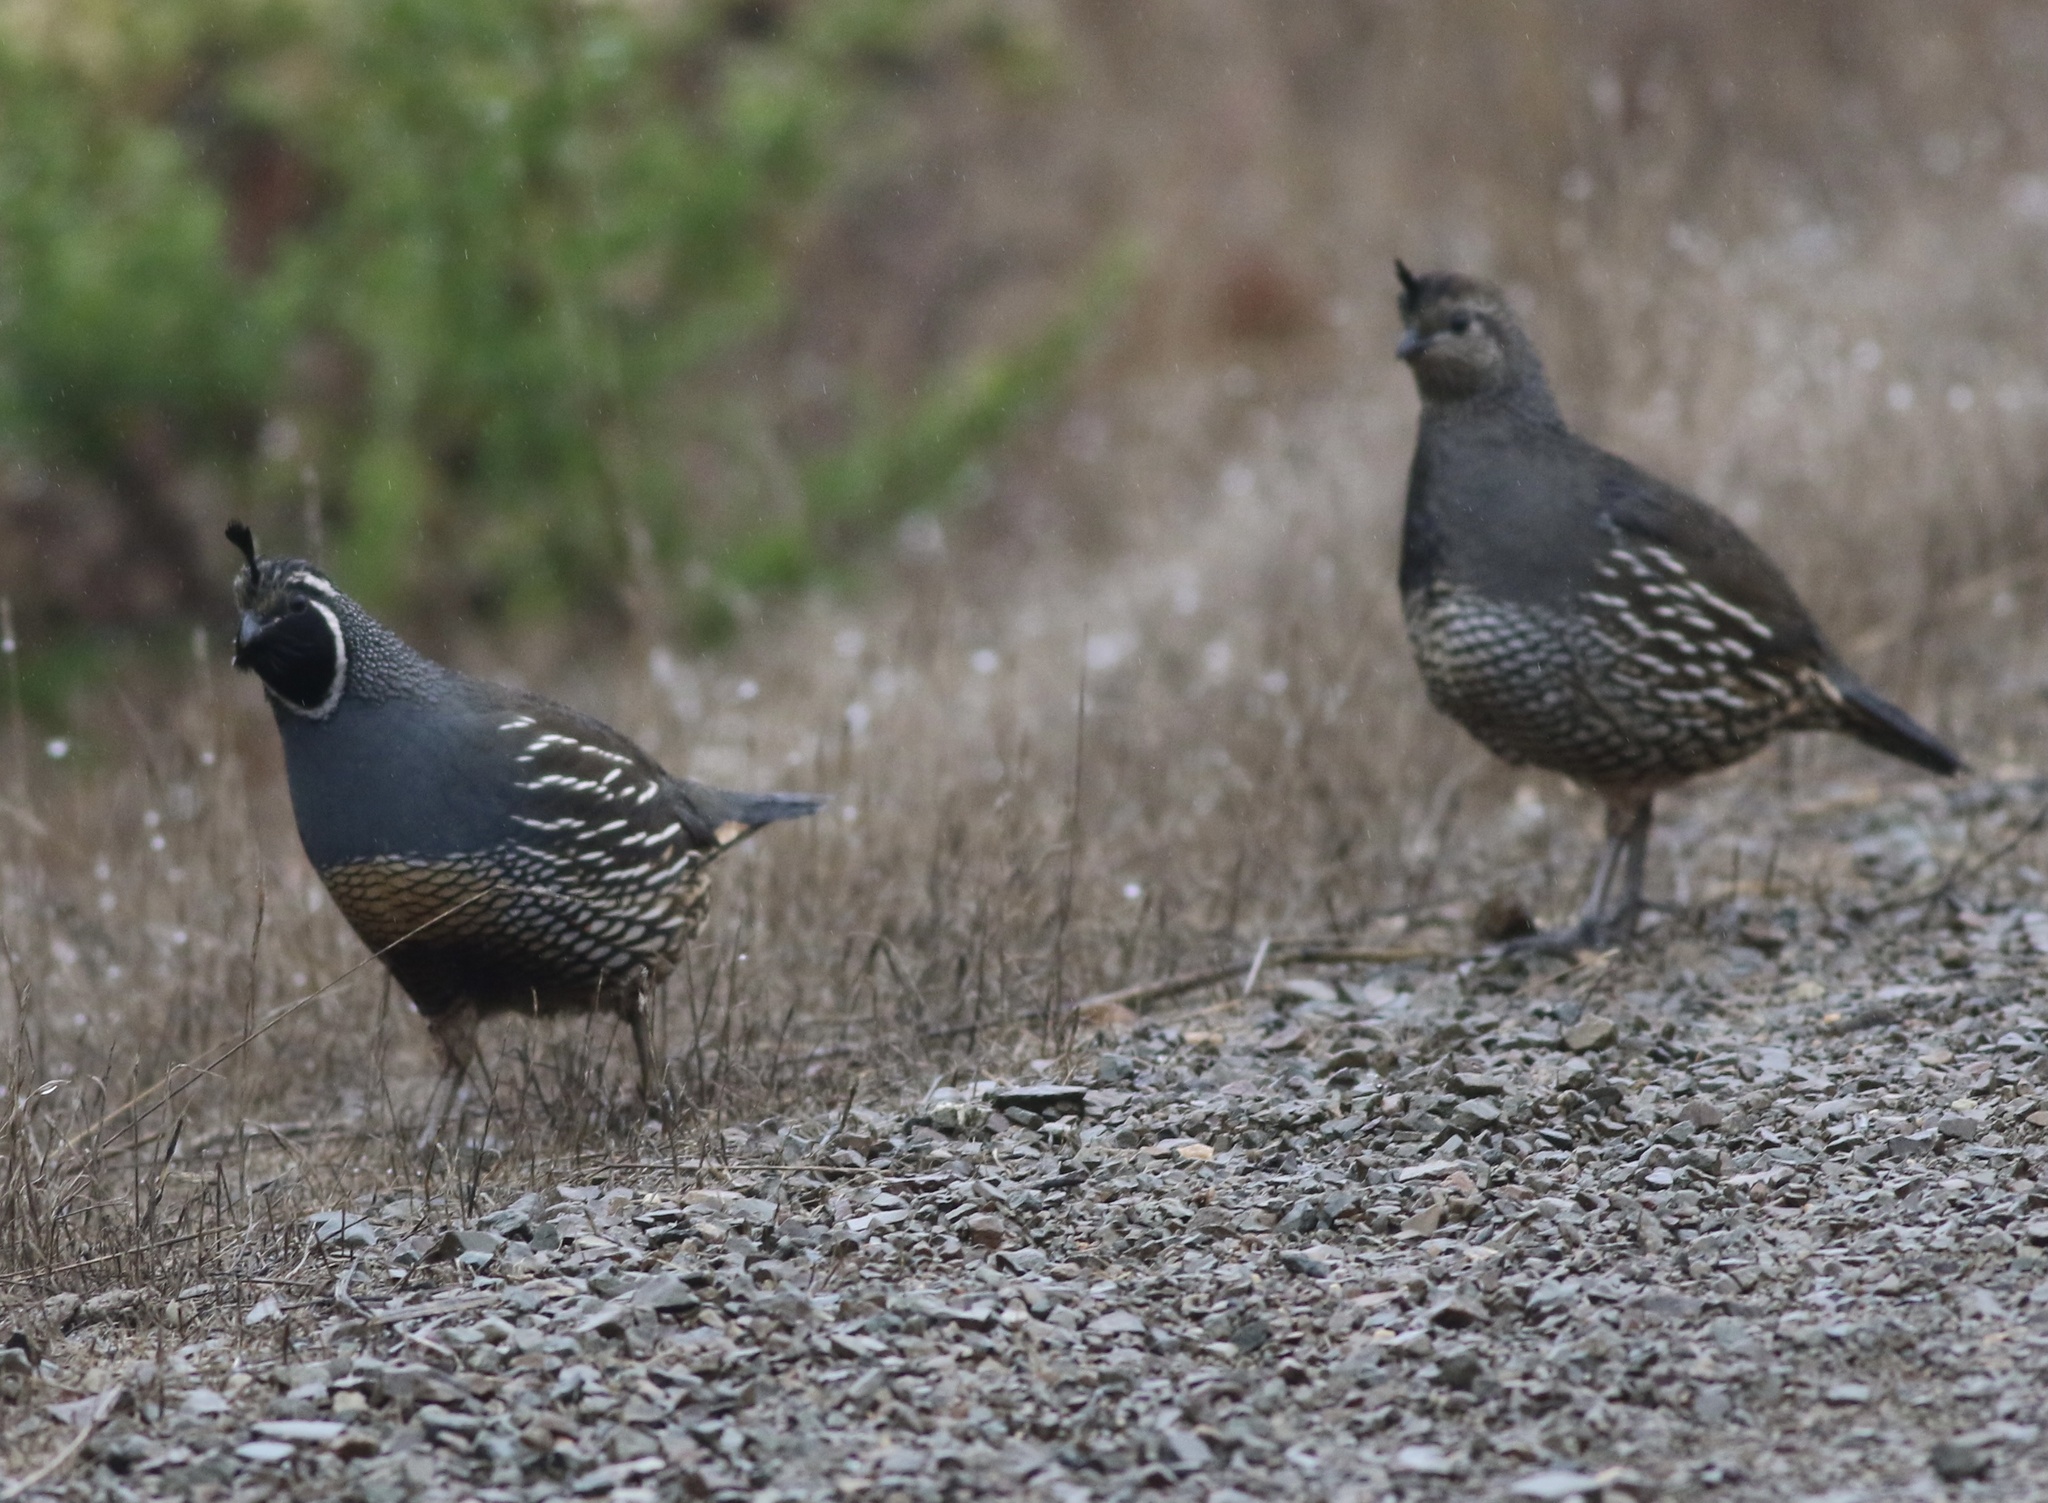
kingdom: Animalia
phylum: Chordata
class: Aves
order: Galliformes
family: Odontophoridae
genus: Callipepla
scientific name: Callipepla californica
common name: California quail
